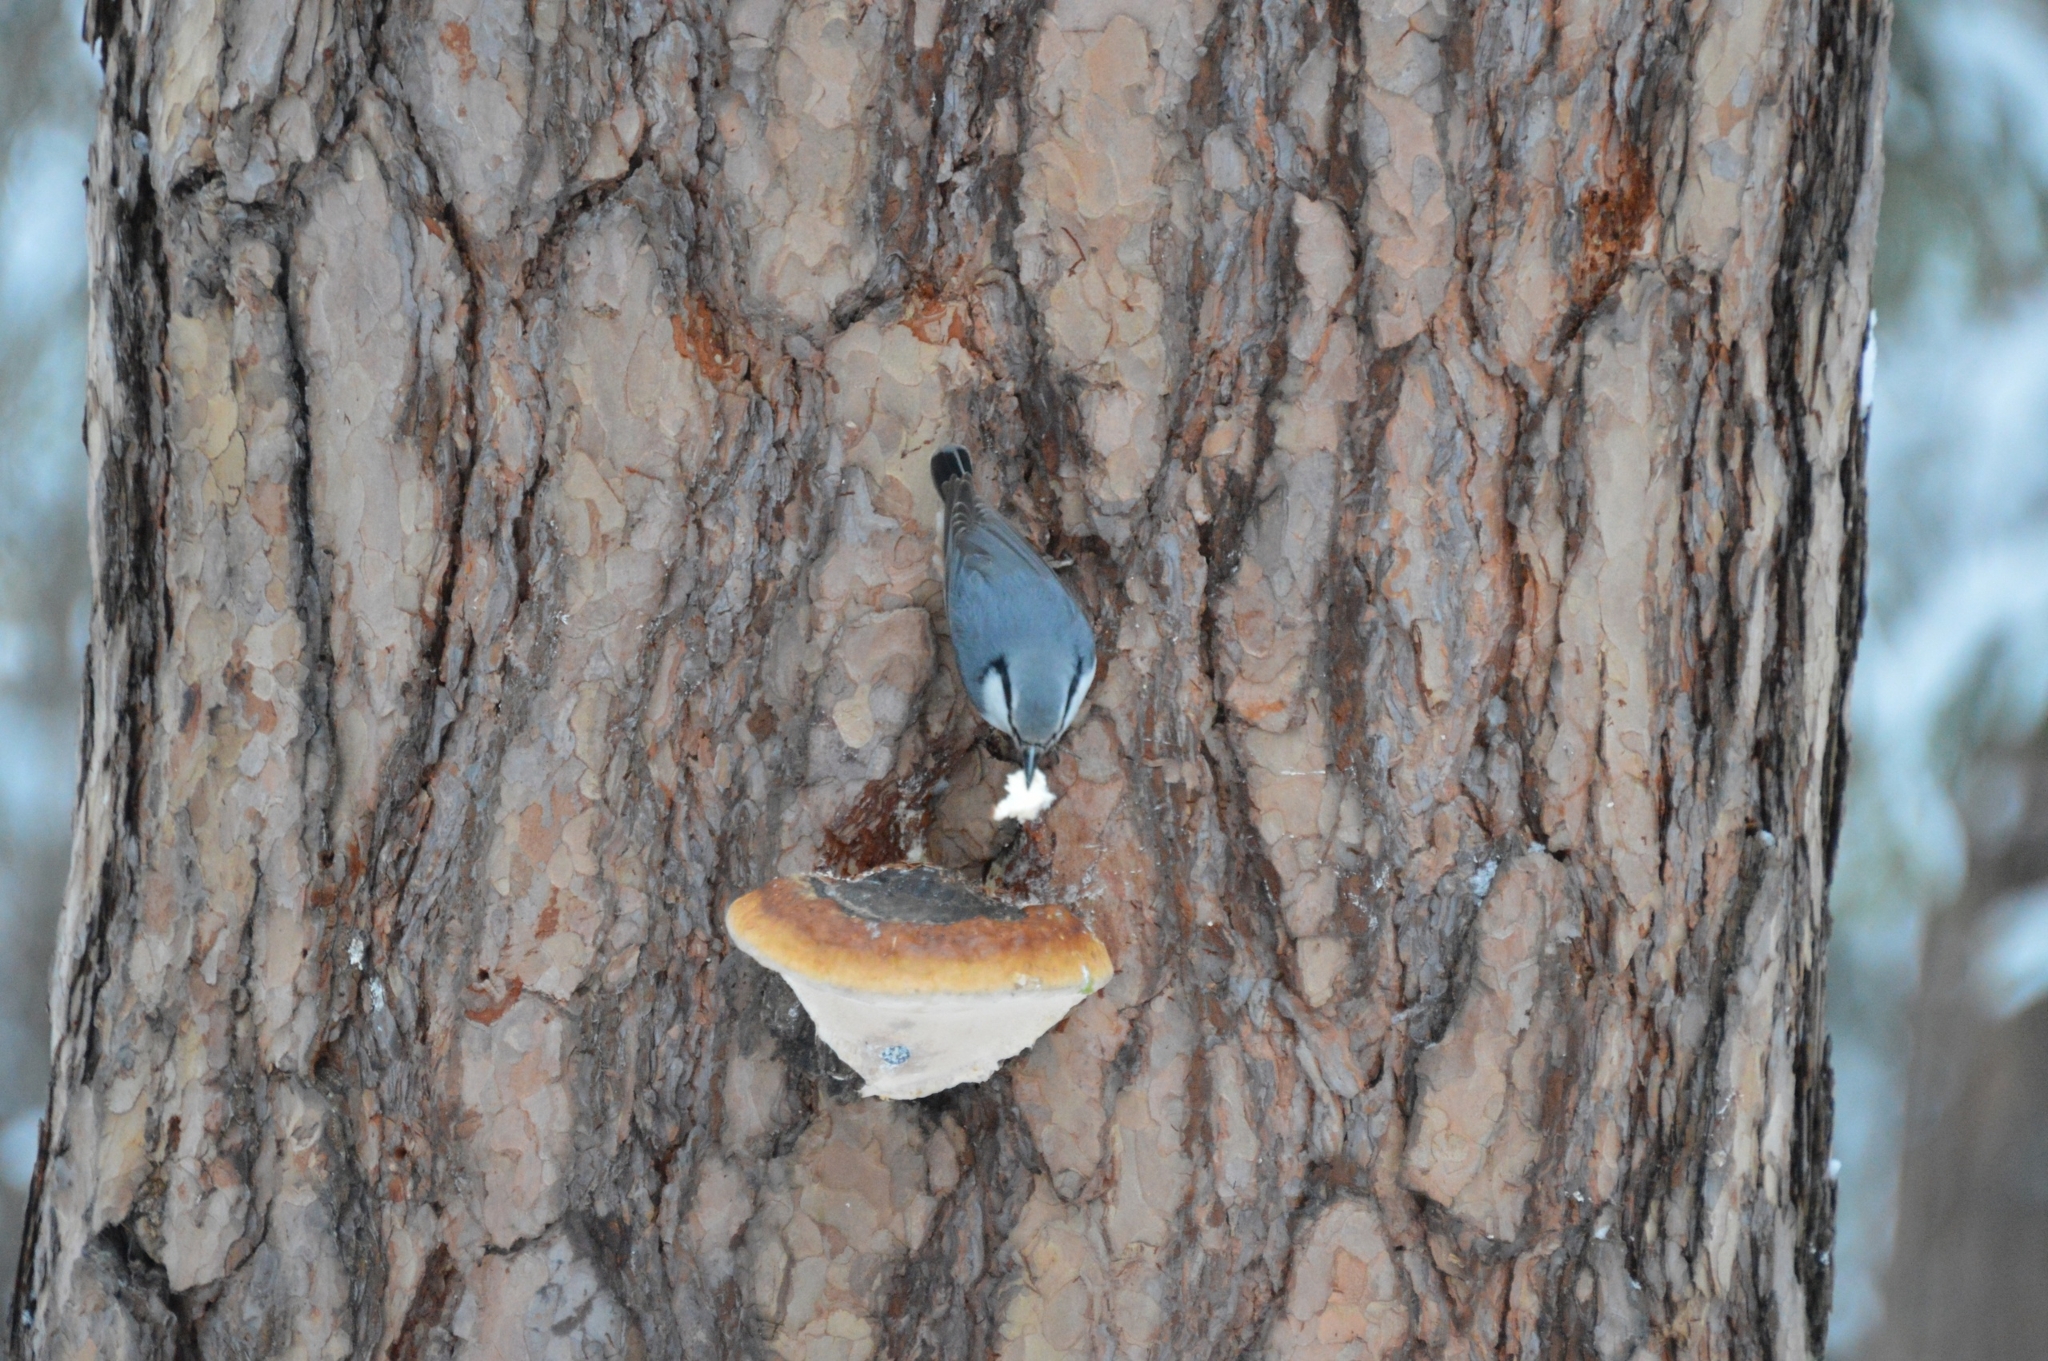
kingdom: Animalia
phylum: Chordata
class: Aves
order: Passeriformes
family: Sittidae
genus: Sitta
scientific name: Sitta europaea
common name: Eurasian nuthatch
